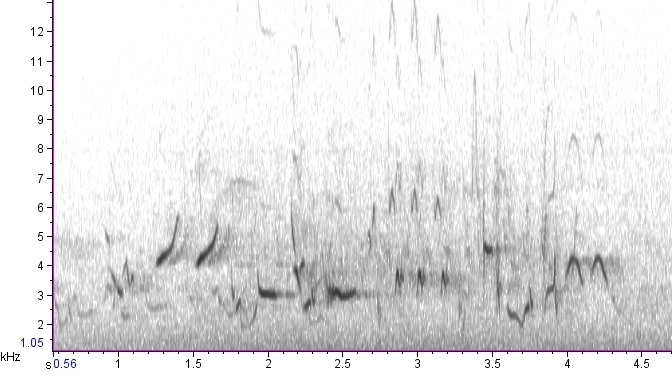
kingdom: Animalia
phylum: Chordata
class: Aves
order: Passeriformes
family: Icteridae
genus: Icterus
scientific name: Icterus spurius
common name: Orchard oriole
